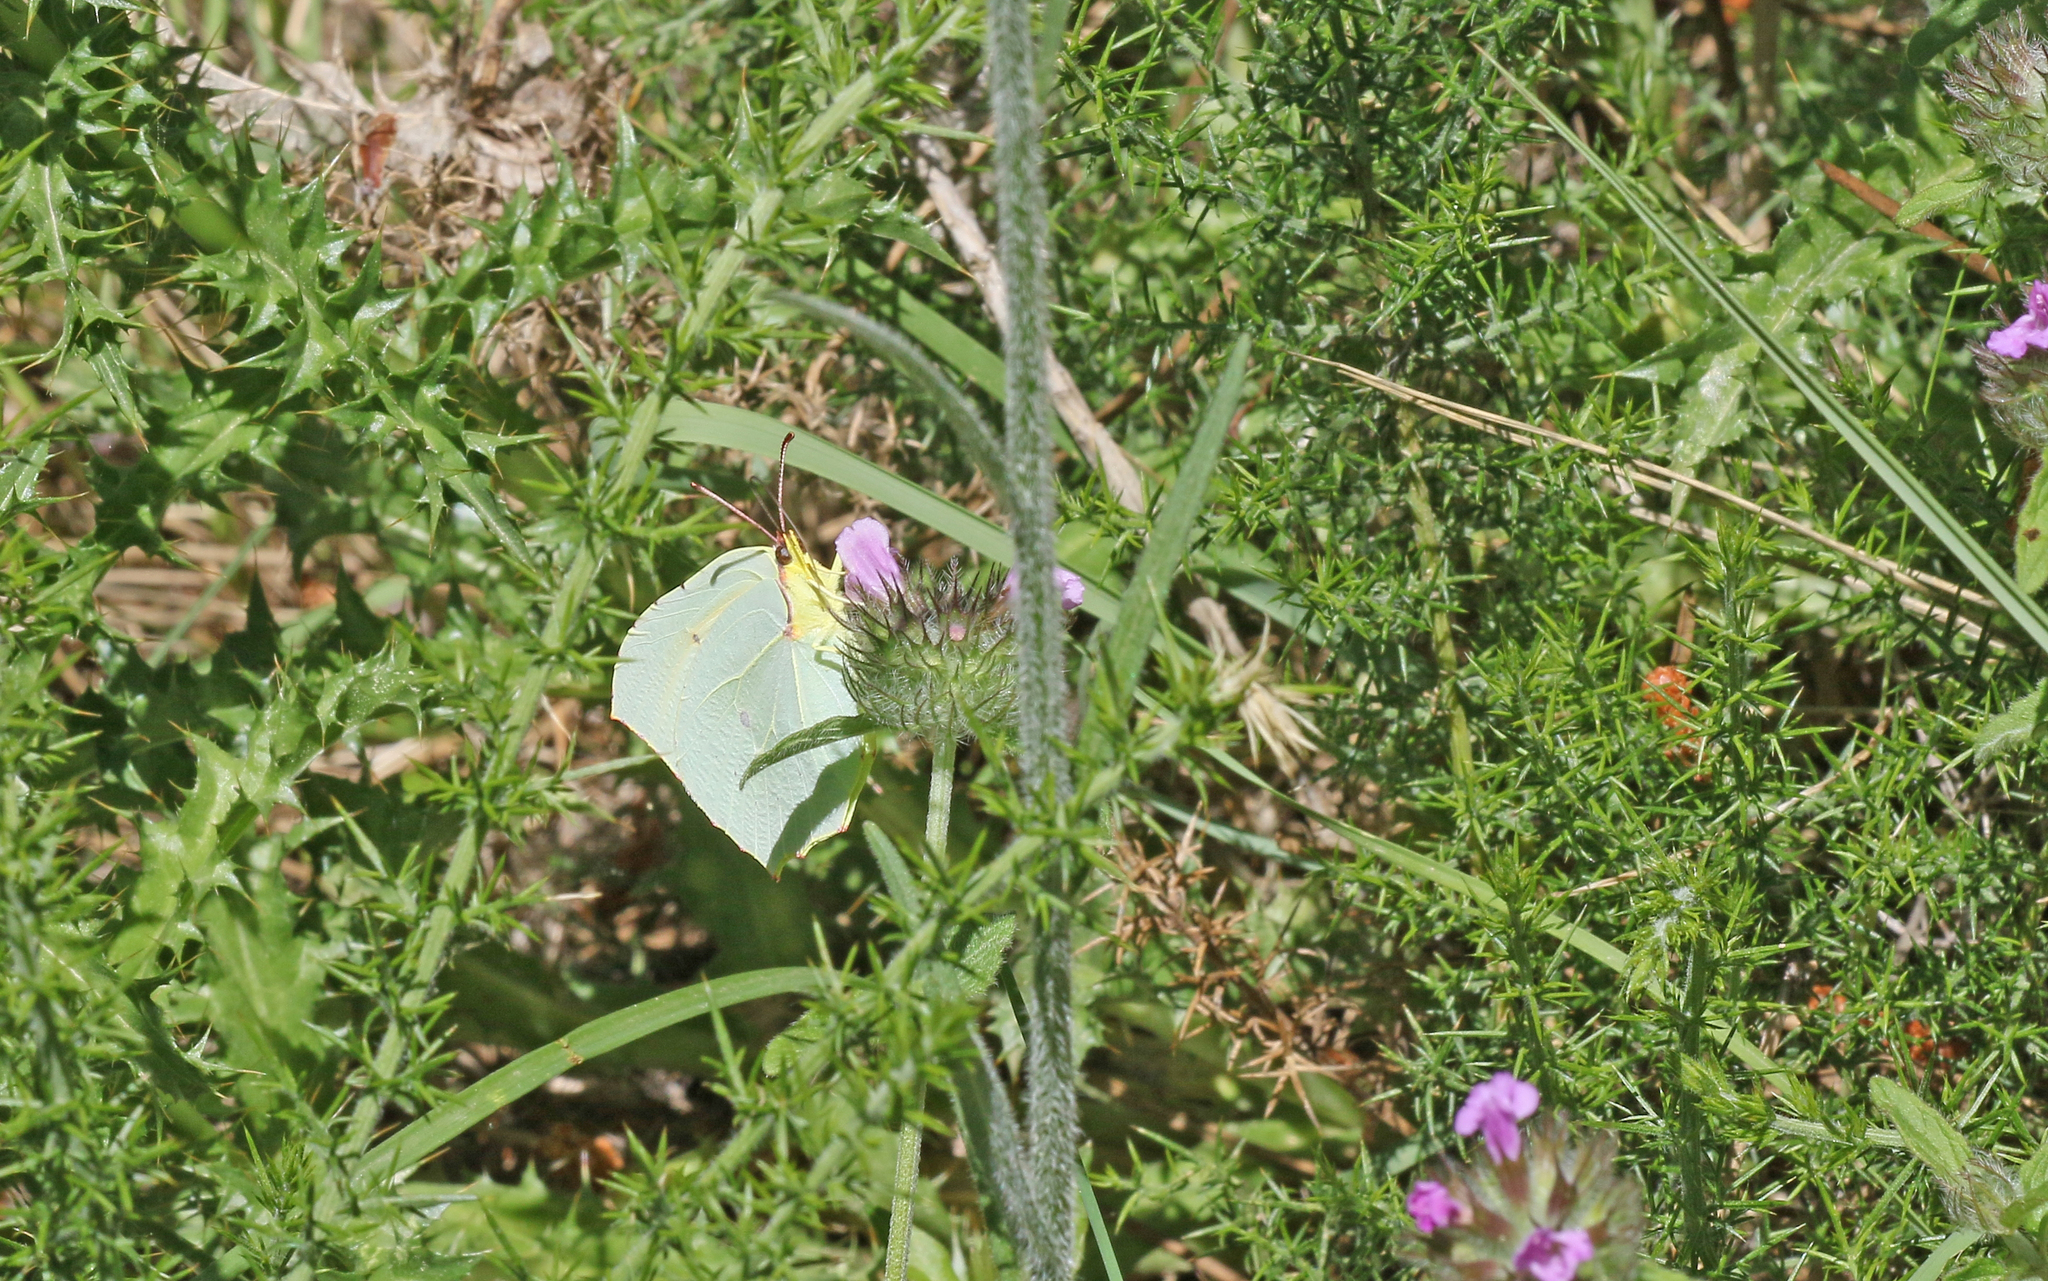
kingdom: Animalia
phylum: Arthropoda
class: Insecta
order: Lepidoptera
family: Pieridae
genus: Gonepteryx
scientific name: Gonepteryx cleopatra
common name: Cleopatra
